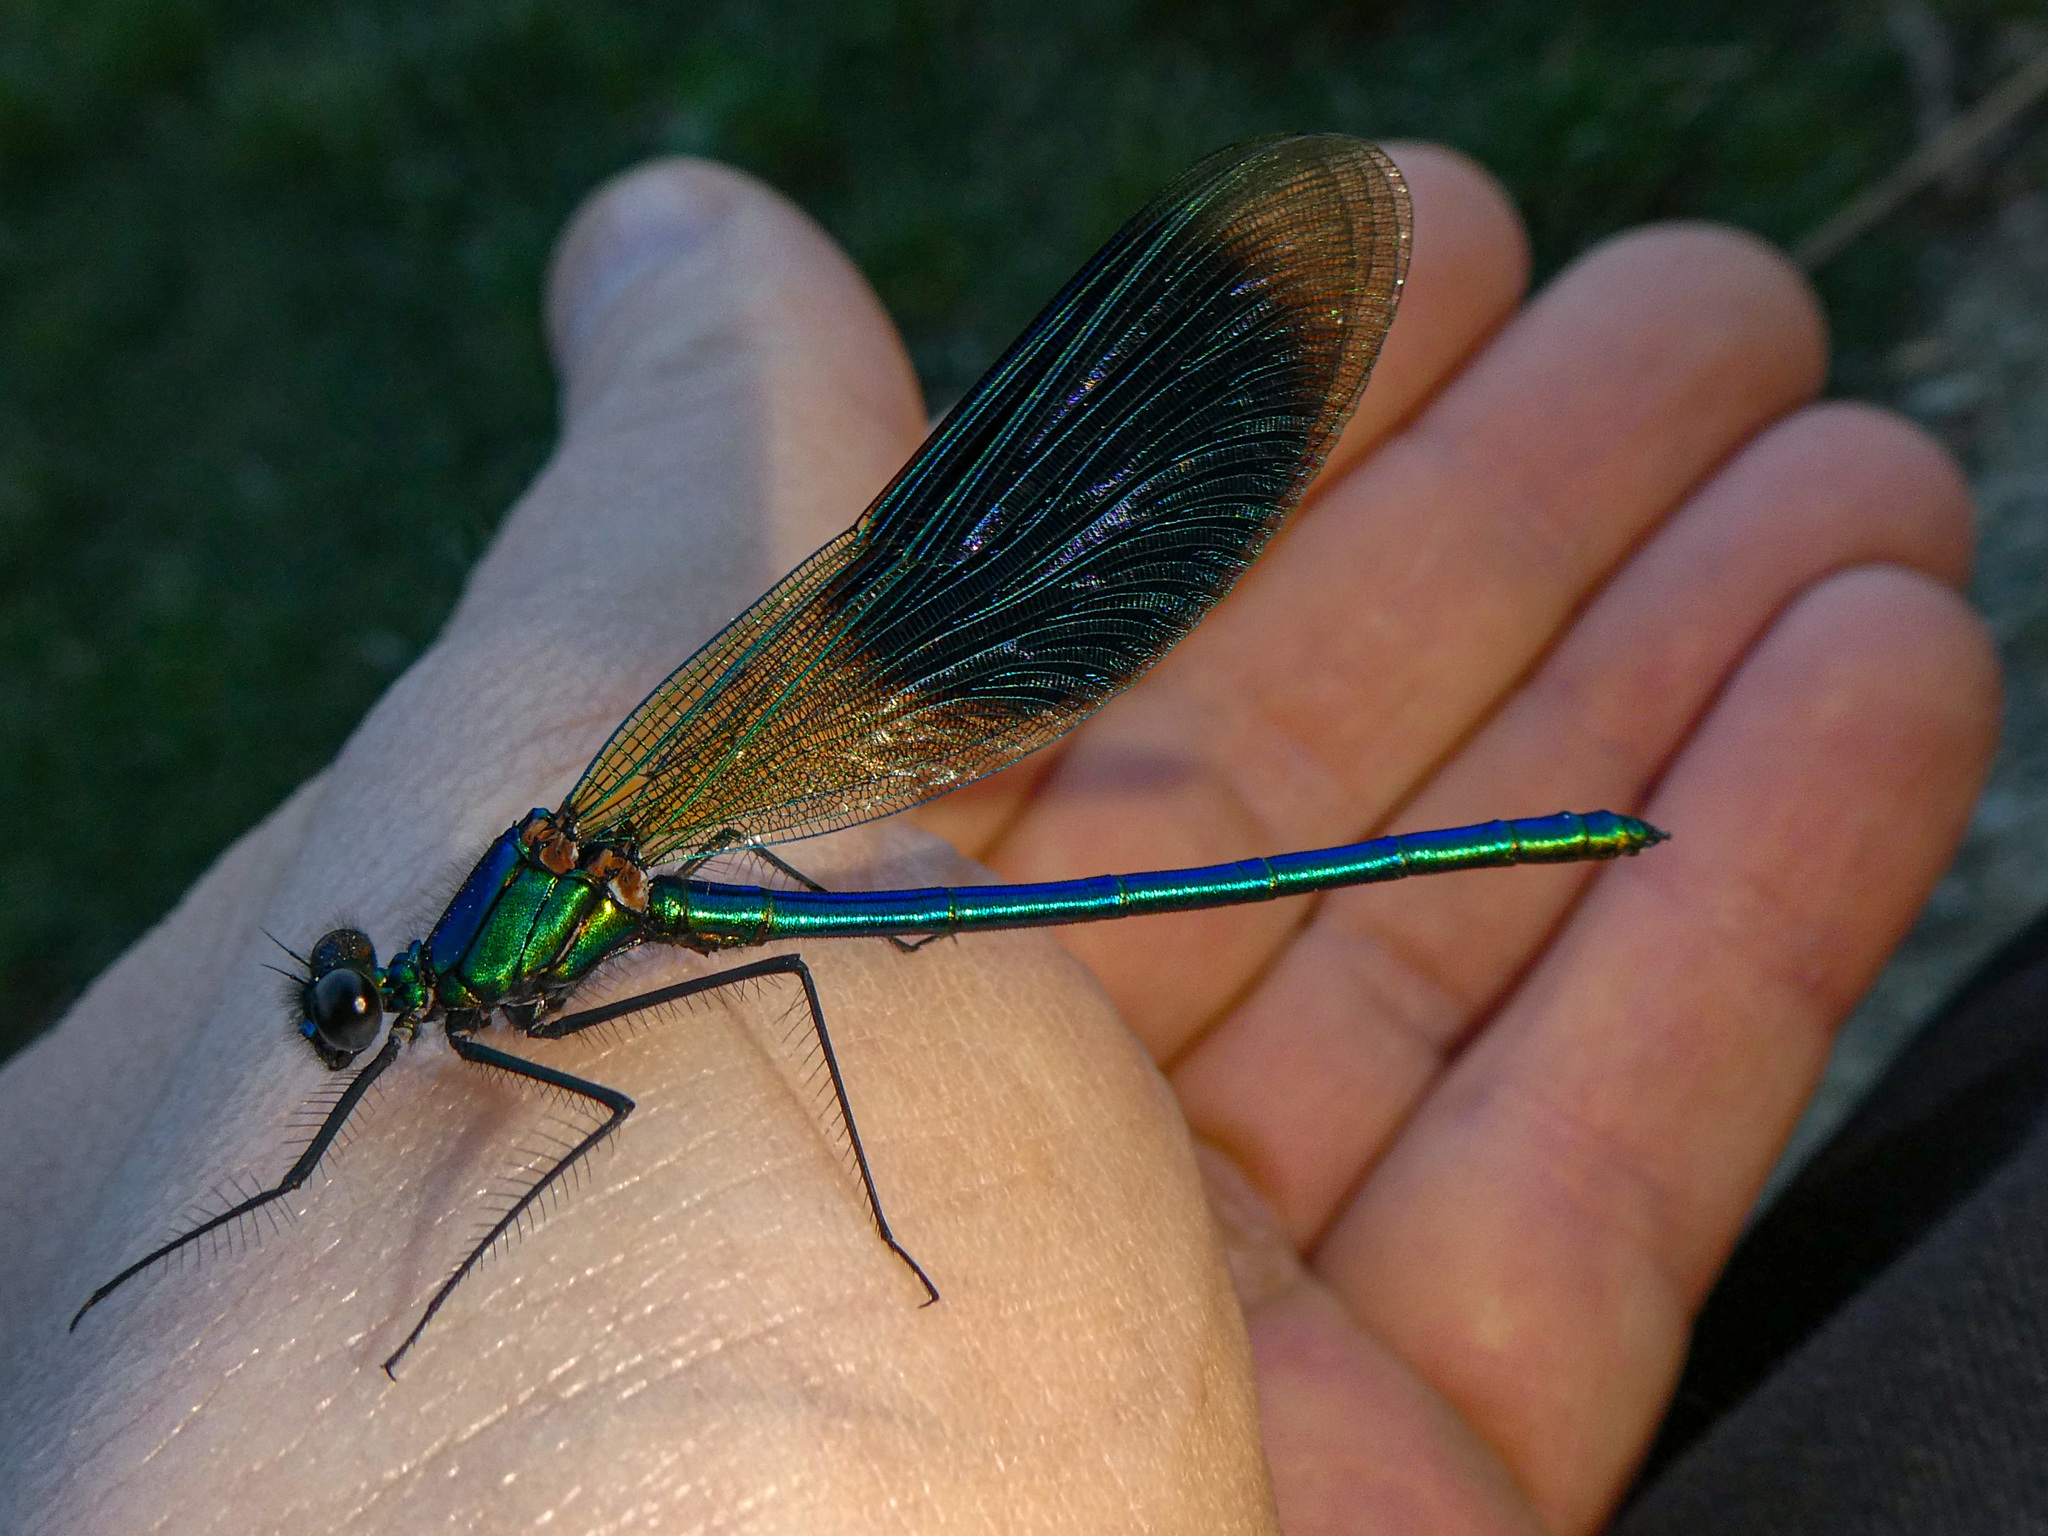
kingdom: Animalia
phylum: Arthropoda
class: Insecta
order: Odonata
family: Calopterygidae
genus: Calopteryx
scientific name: Calopteryx splendens
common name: Banded demoiselle
